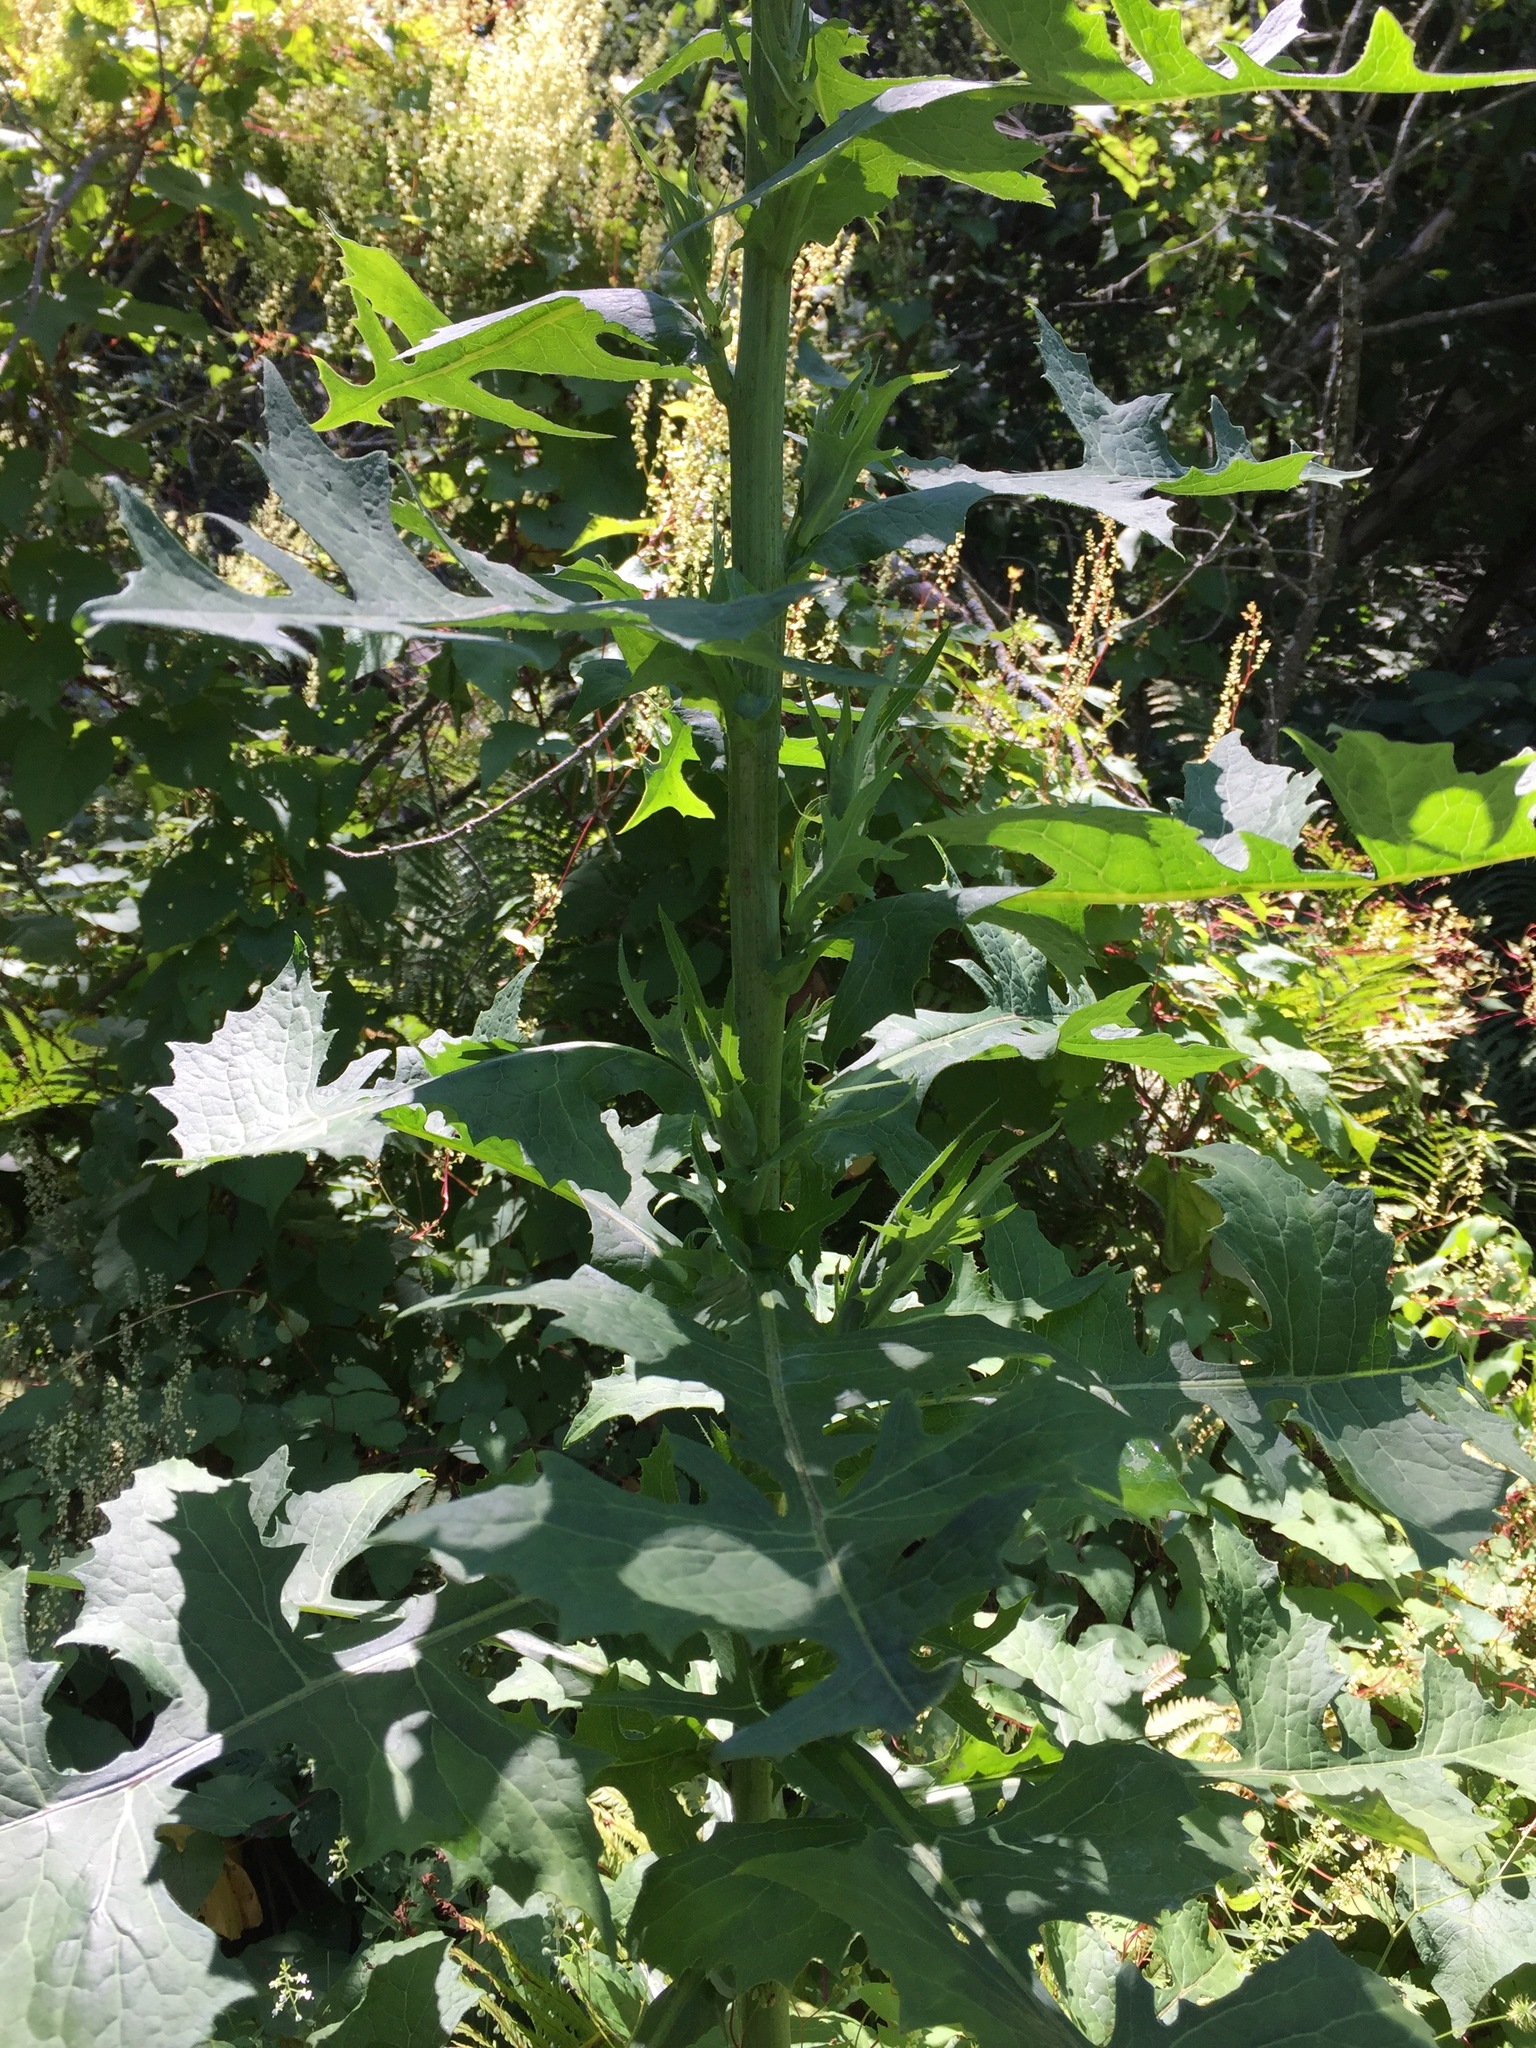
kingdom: Plantae
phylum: Tracheophyta
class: Magnoliopsida
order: Asterales
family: Asteraceae
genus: Lactuca
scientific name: Lactuca biennis
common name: Blue wood lettuce
